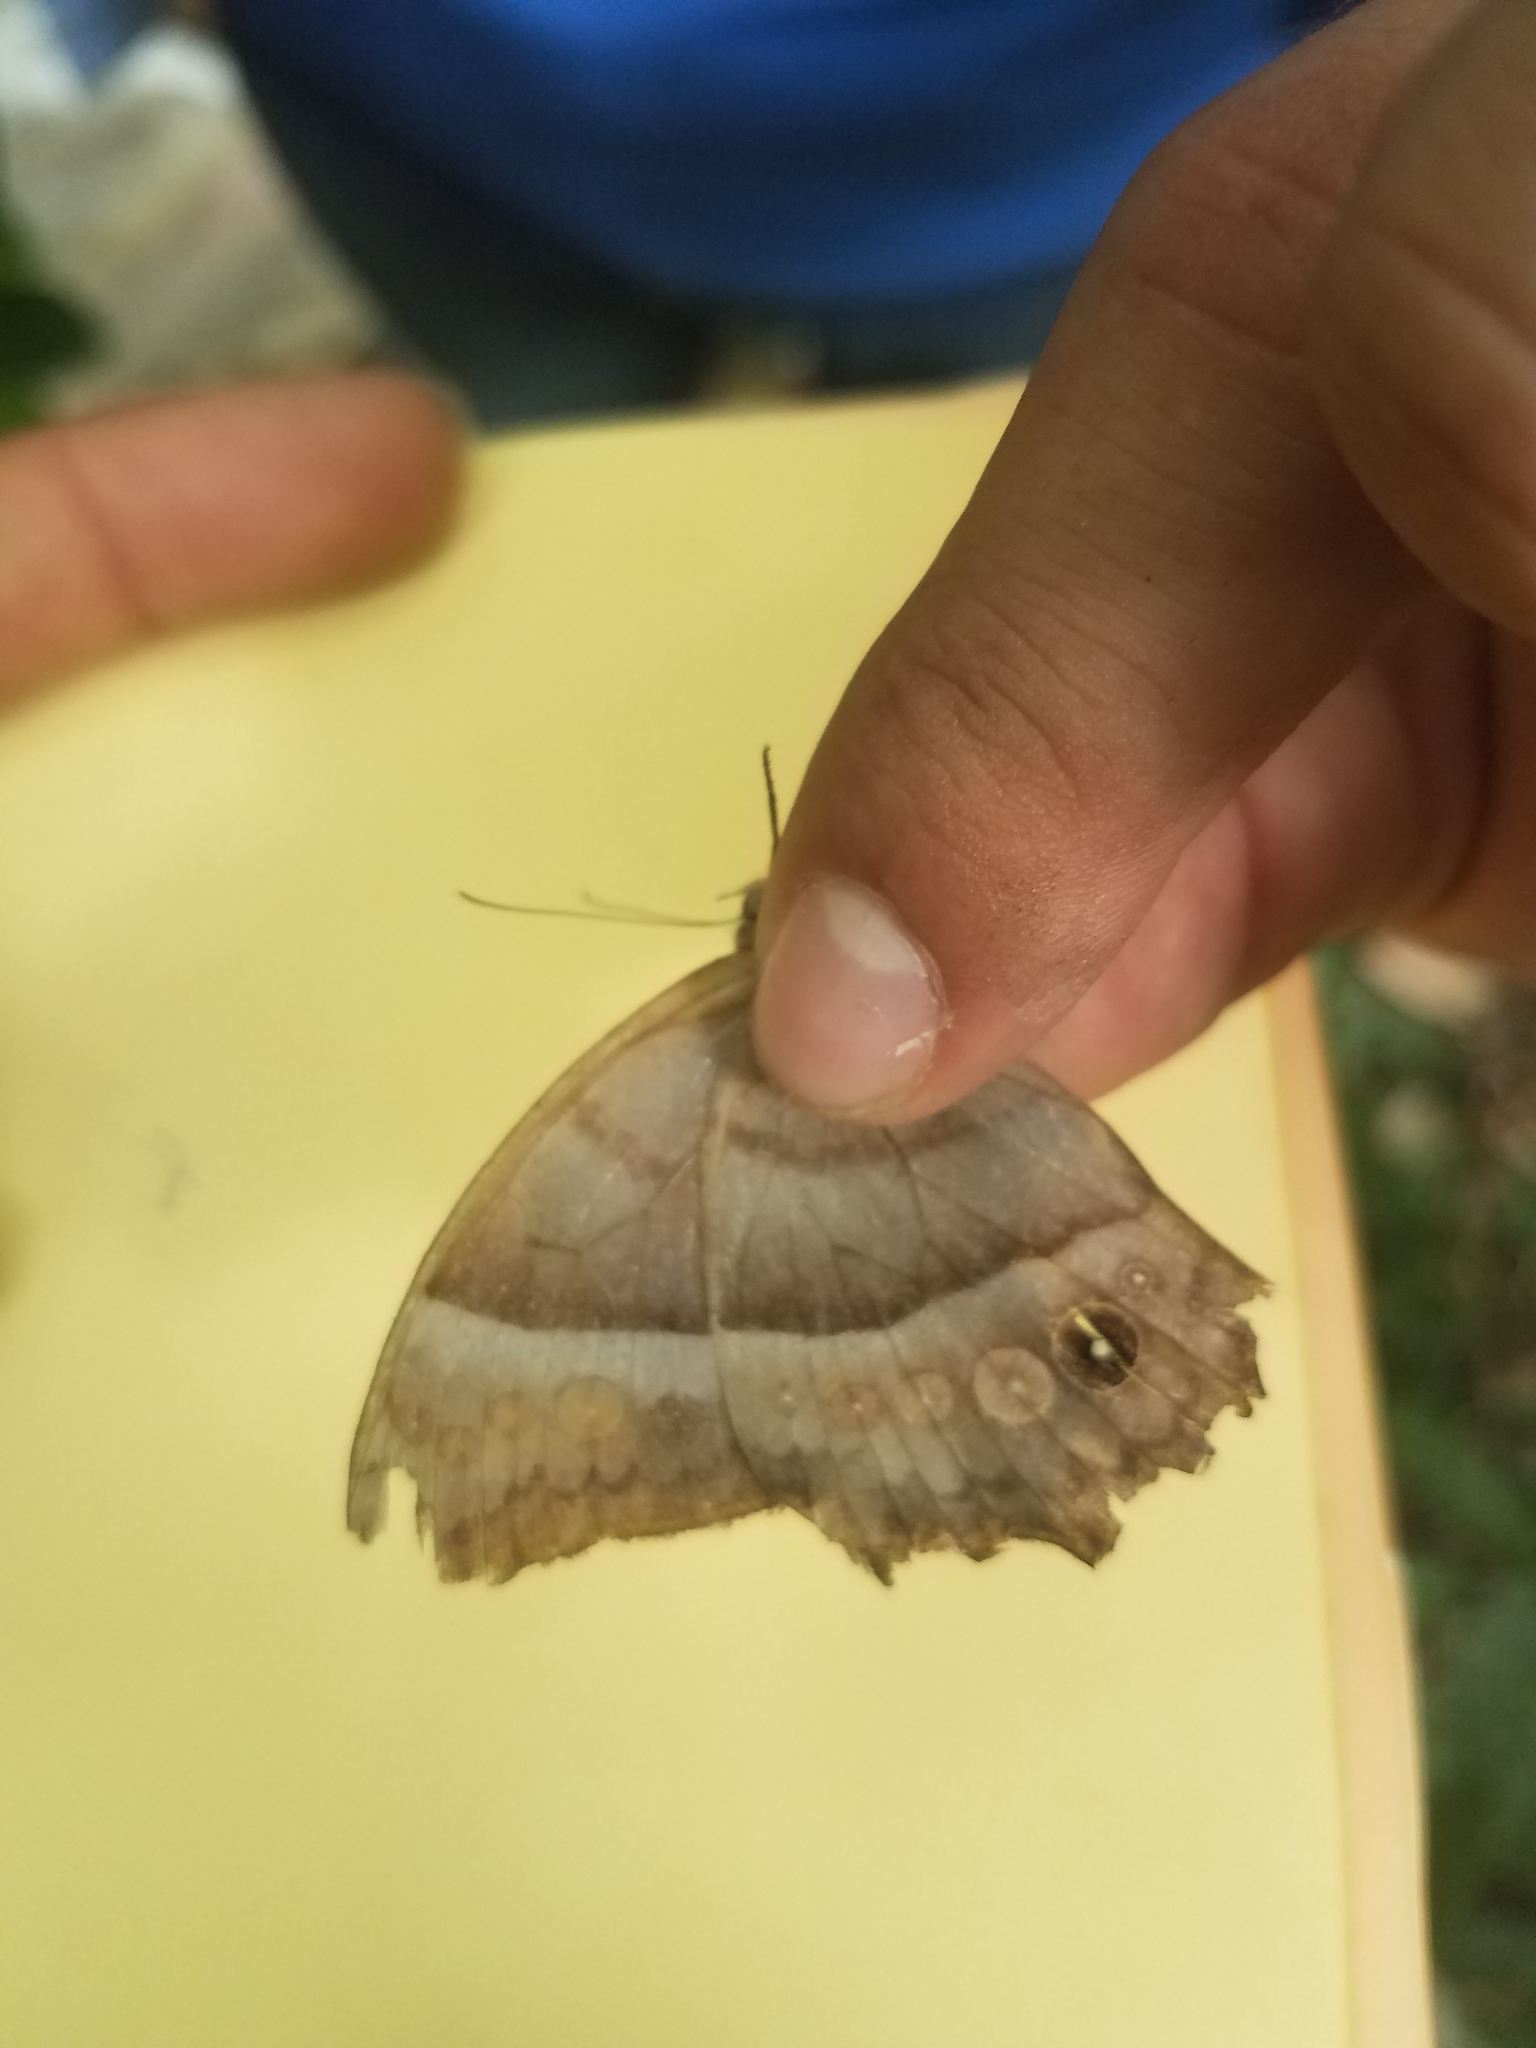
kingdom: Animalia
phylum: Arthropoda
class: Insecta
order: Lepidoptera
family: Nymphalidae
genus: Taygetis
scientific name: Taygetis inconspicua
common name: Inconspicuous satyr
